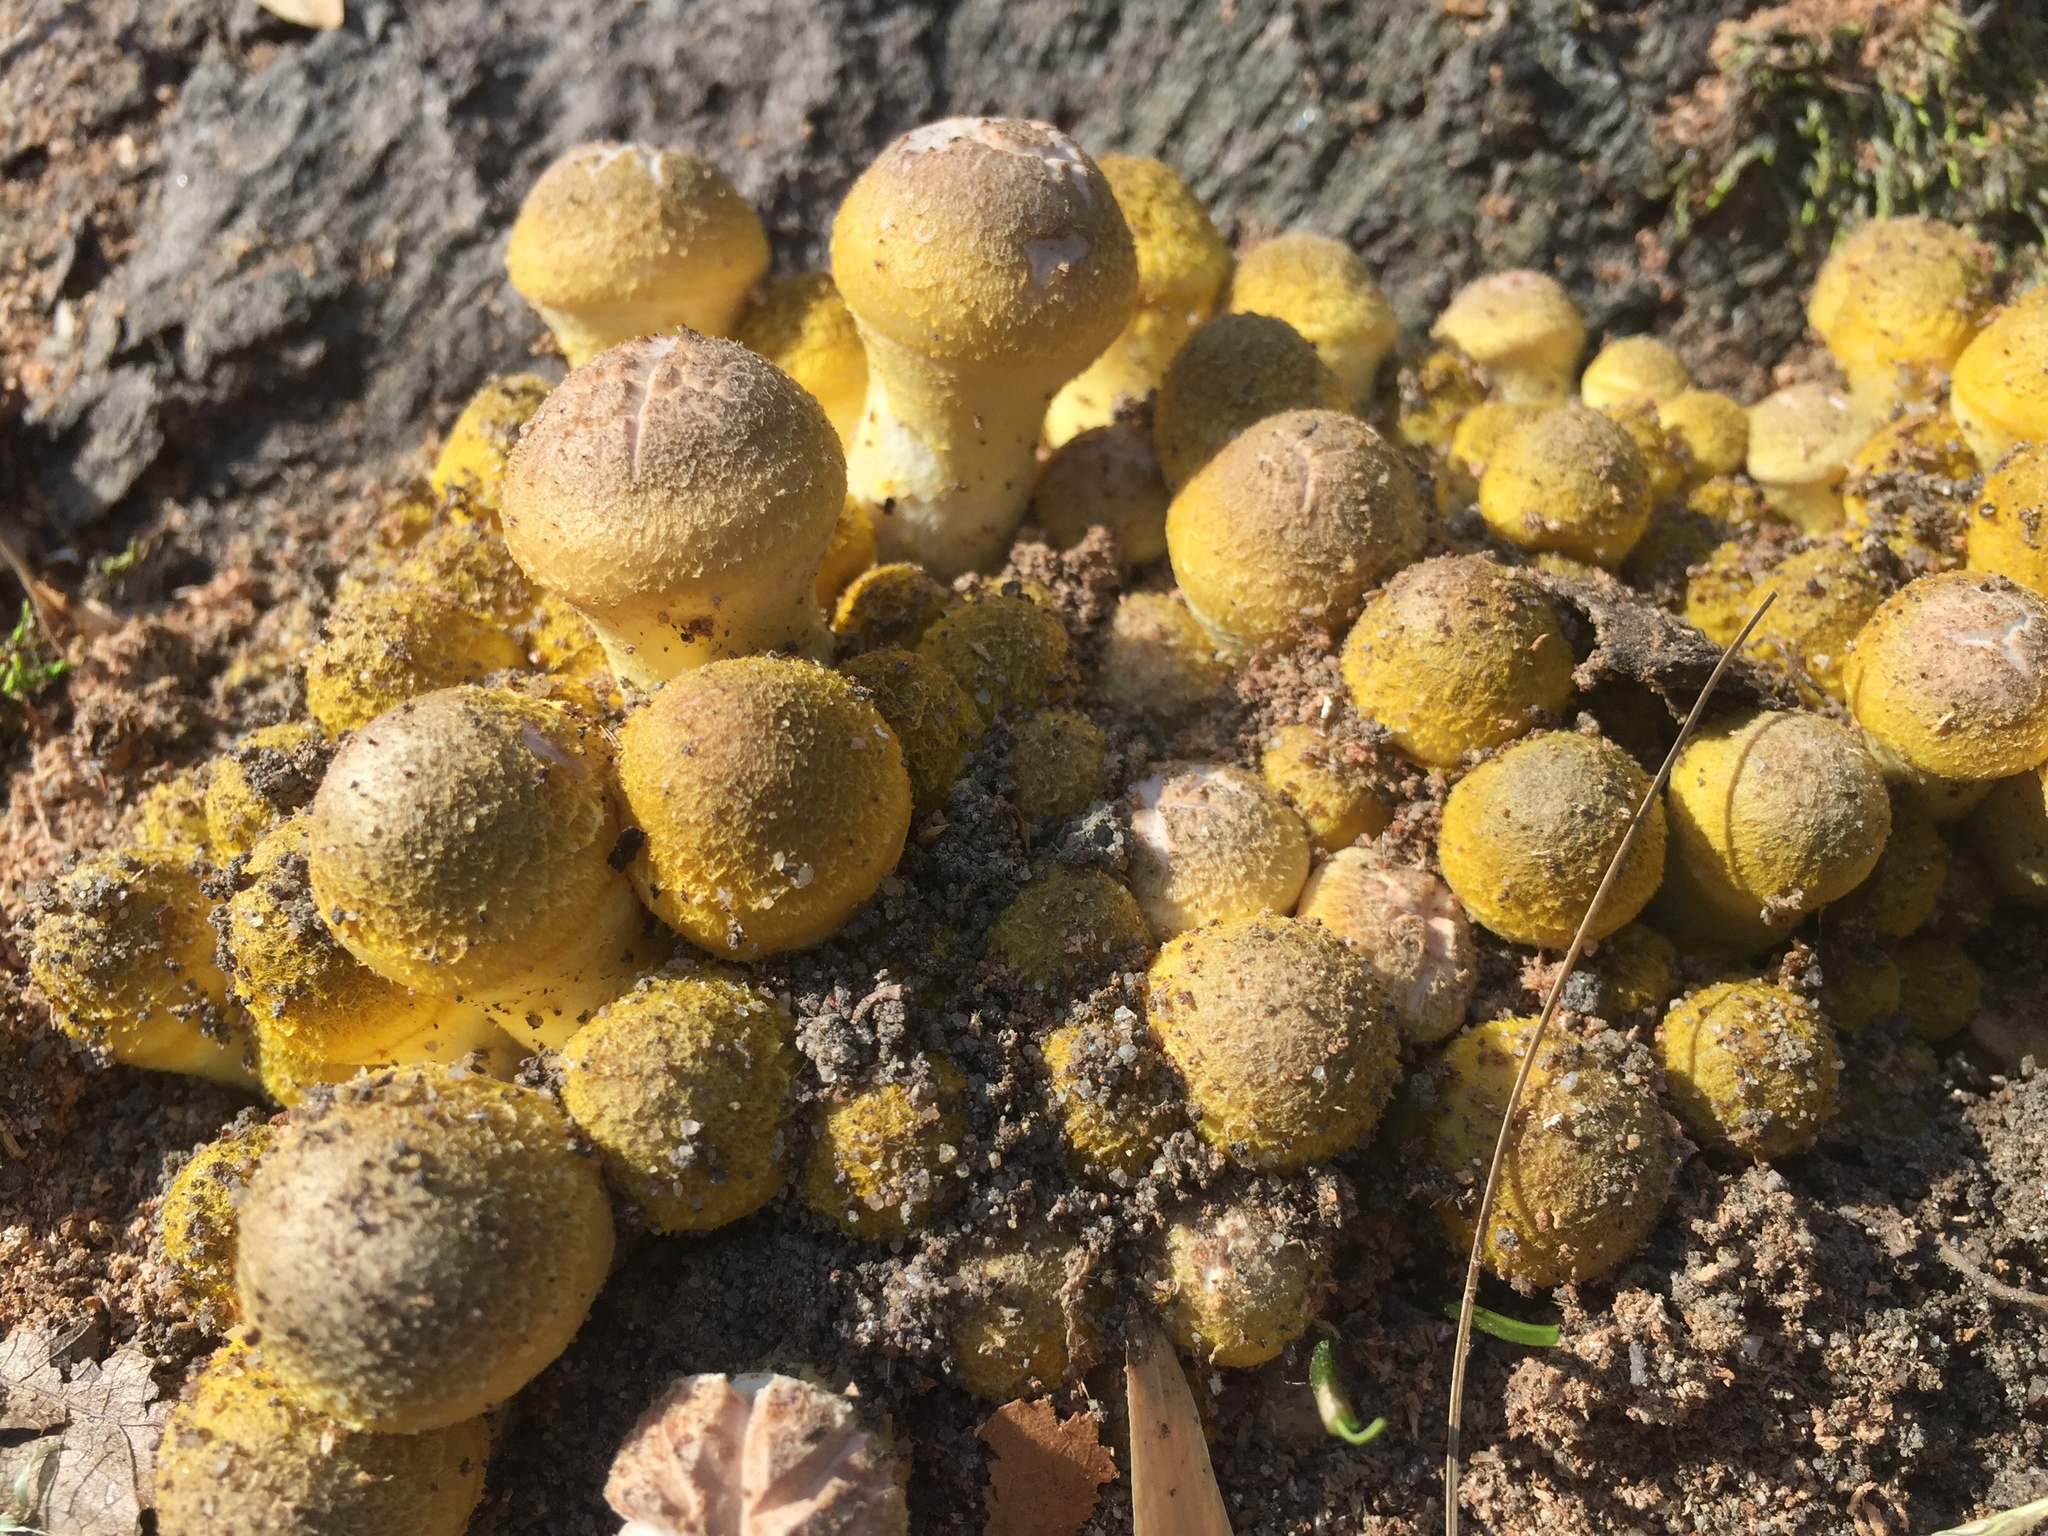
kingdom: Fungi
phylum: Basidiomycota
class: Agaricomycetes
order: Agaricales
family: Physalacriaceae
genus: Armillaria
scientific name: Armillaria gallica
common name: Bulbous honey fungus
